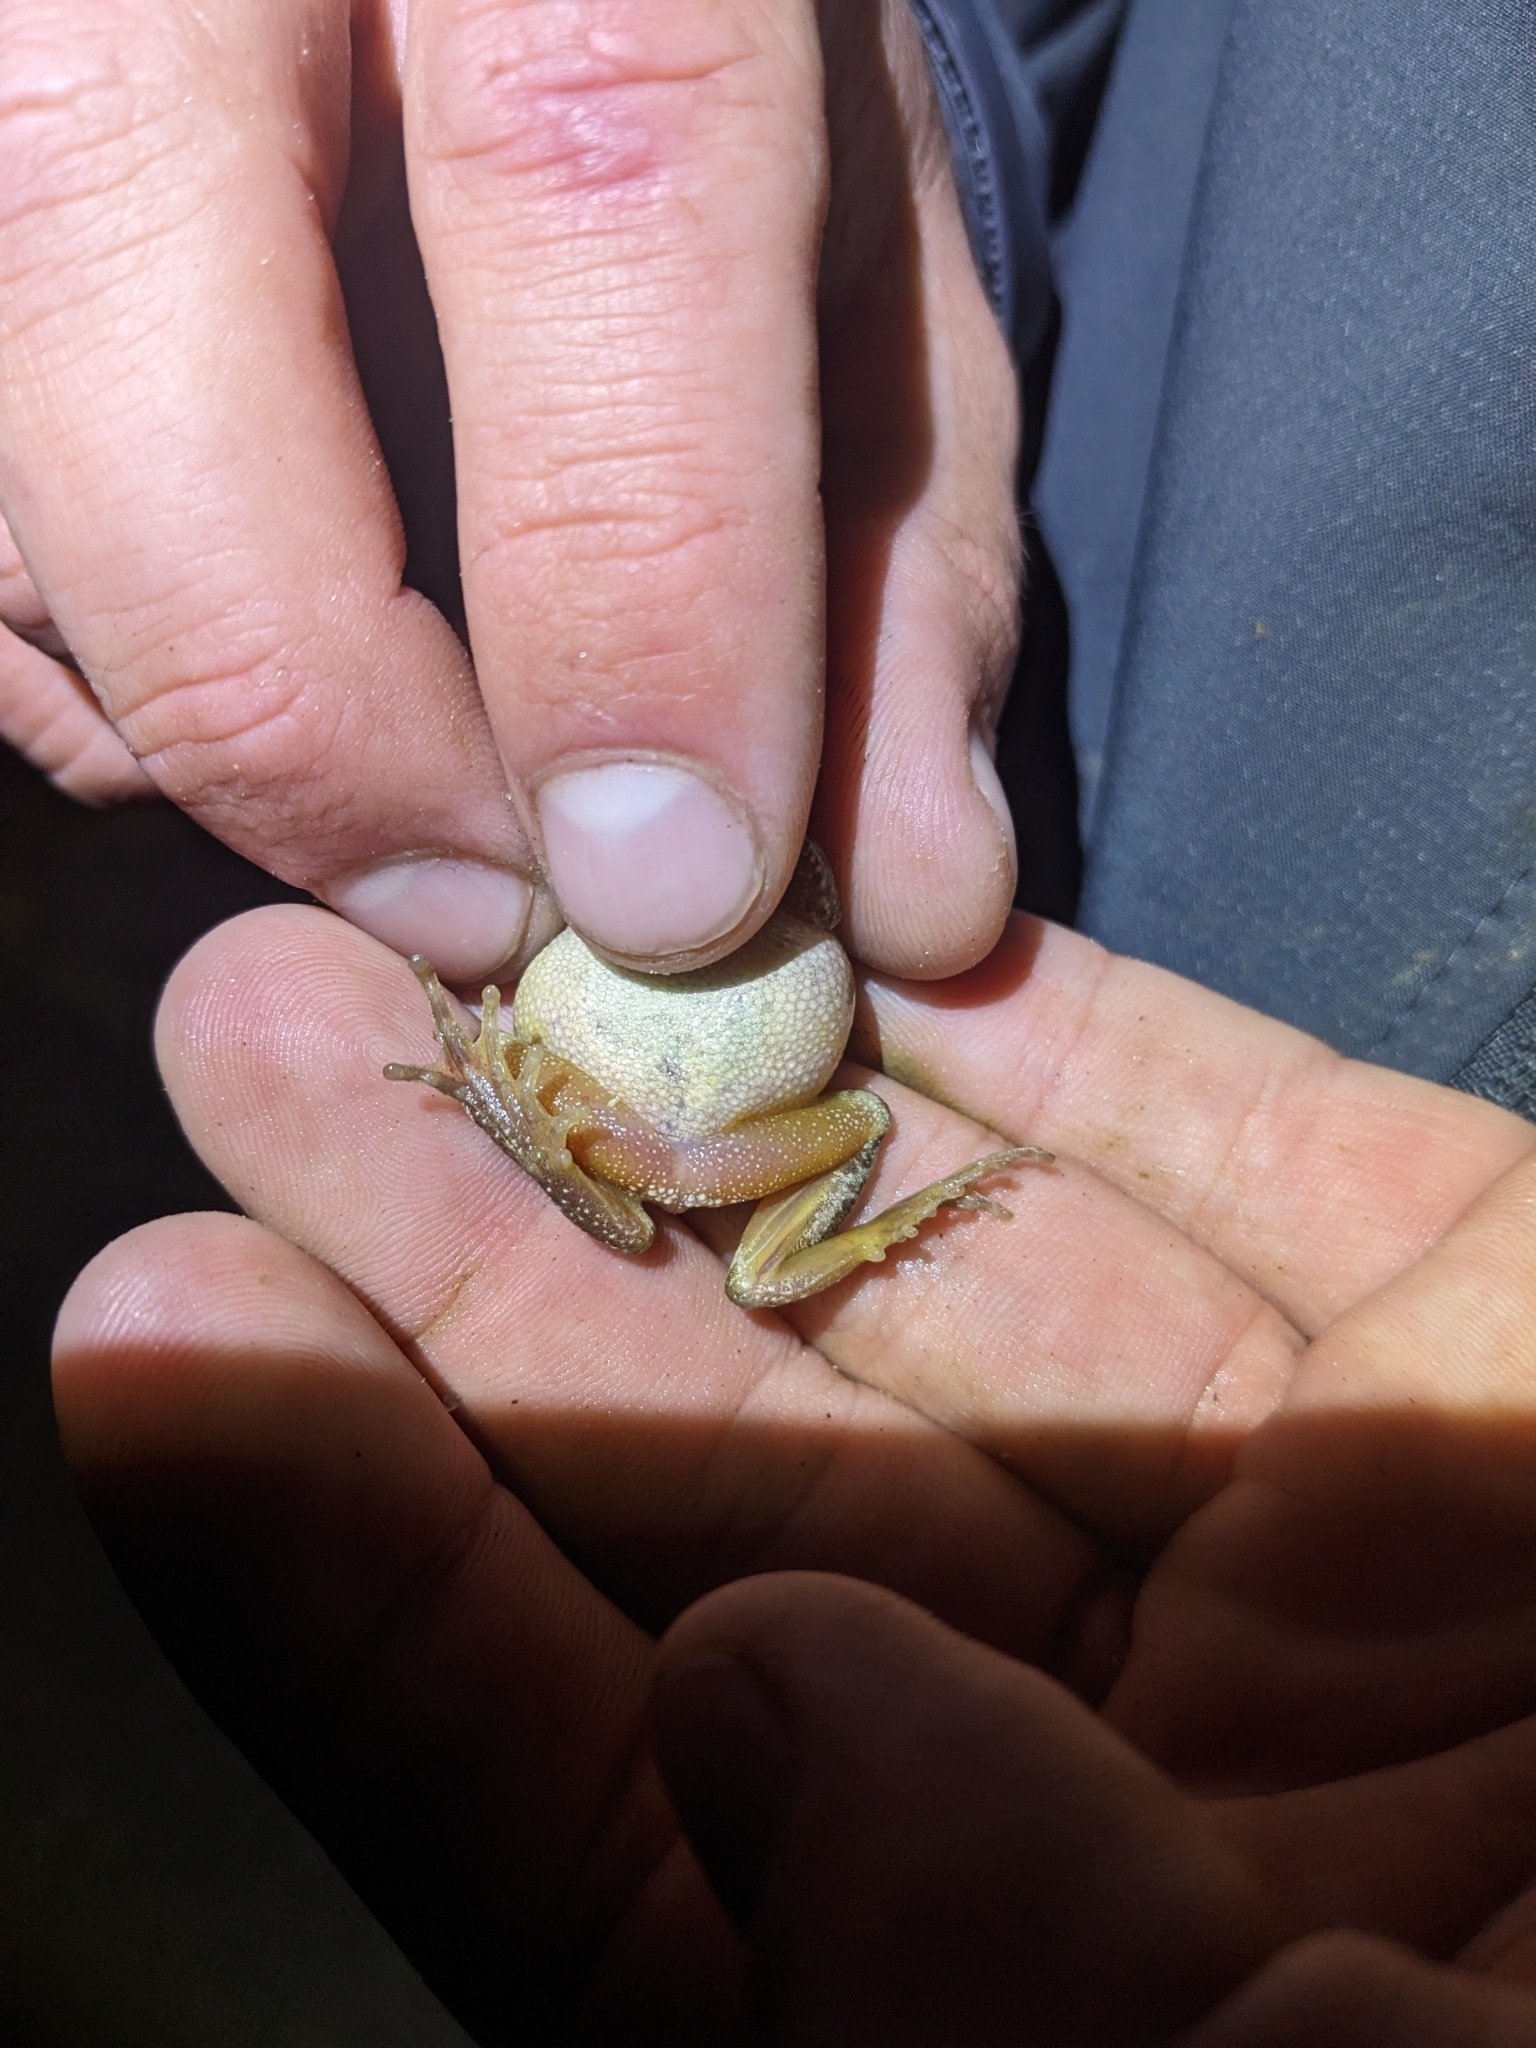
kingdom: Animalia
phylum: Chordata
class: Amphibia
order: Anura
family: Hylidae
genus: Pseudacris
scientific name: Pseudacris regilla
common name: Pacific chorus frog
